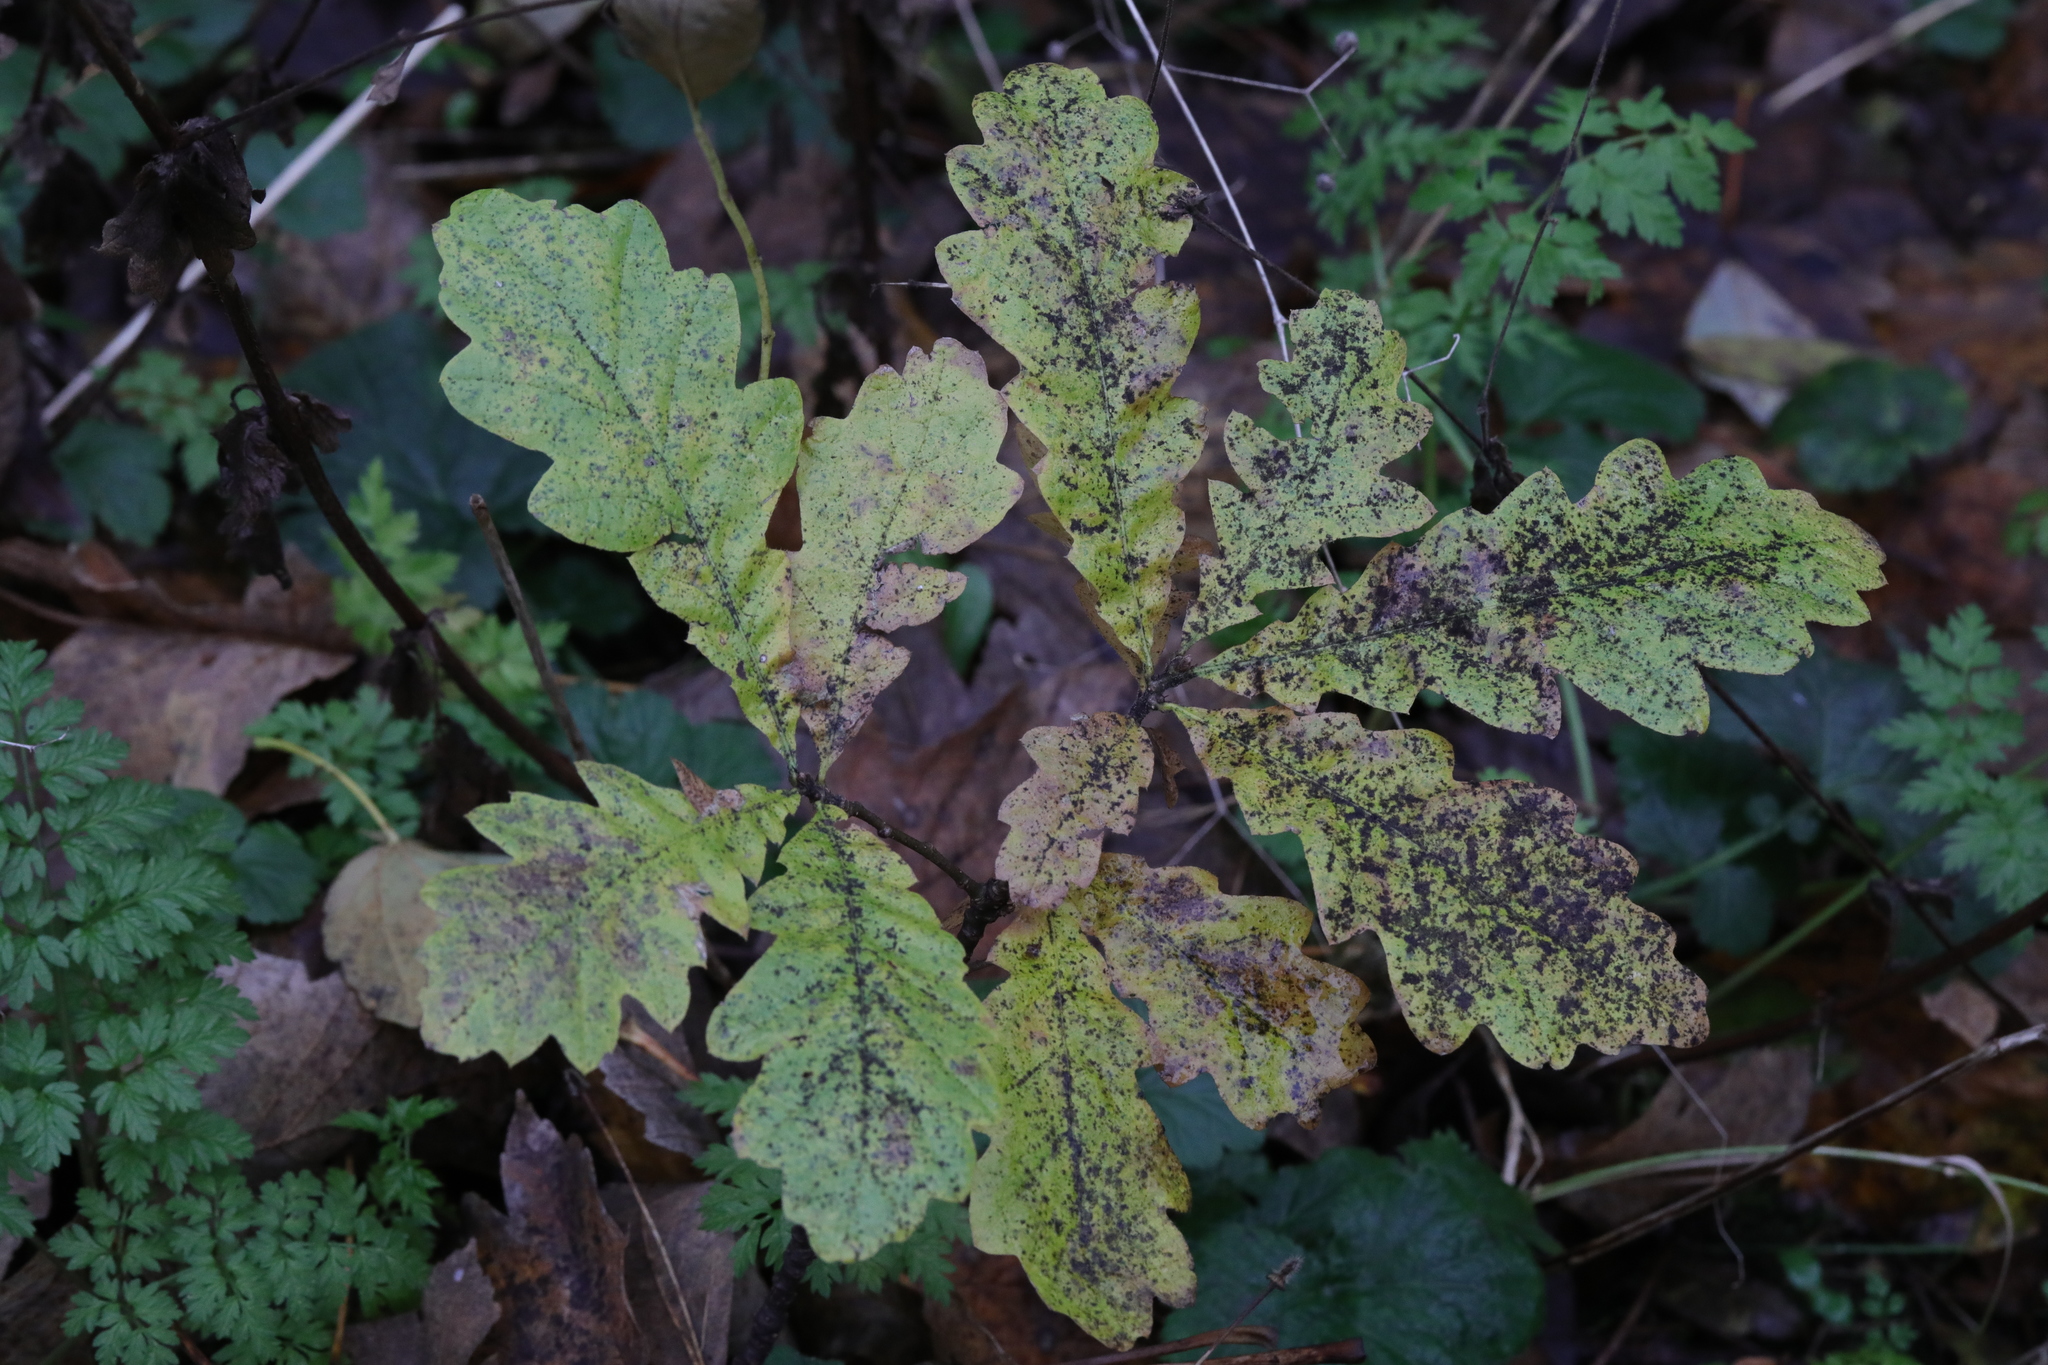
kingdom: Plantae
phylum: Tracheophyta
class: Magnoliopsida
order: Fagales
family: Fagaceae
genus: Quercus
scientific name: Quercus robur
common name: Pedunculate oak
